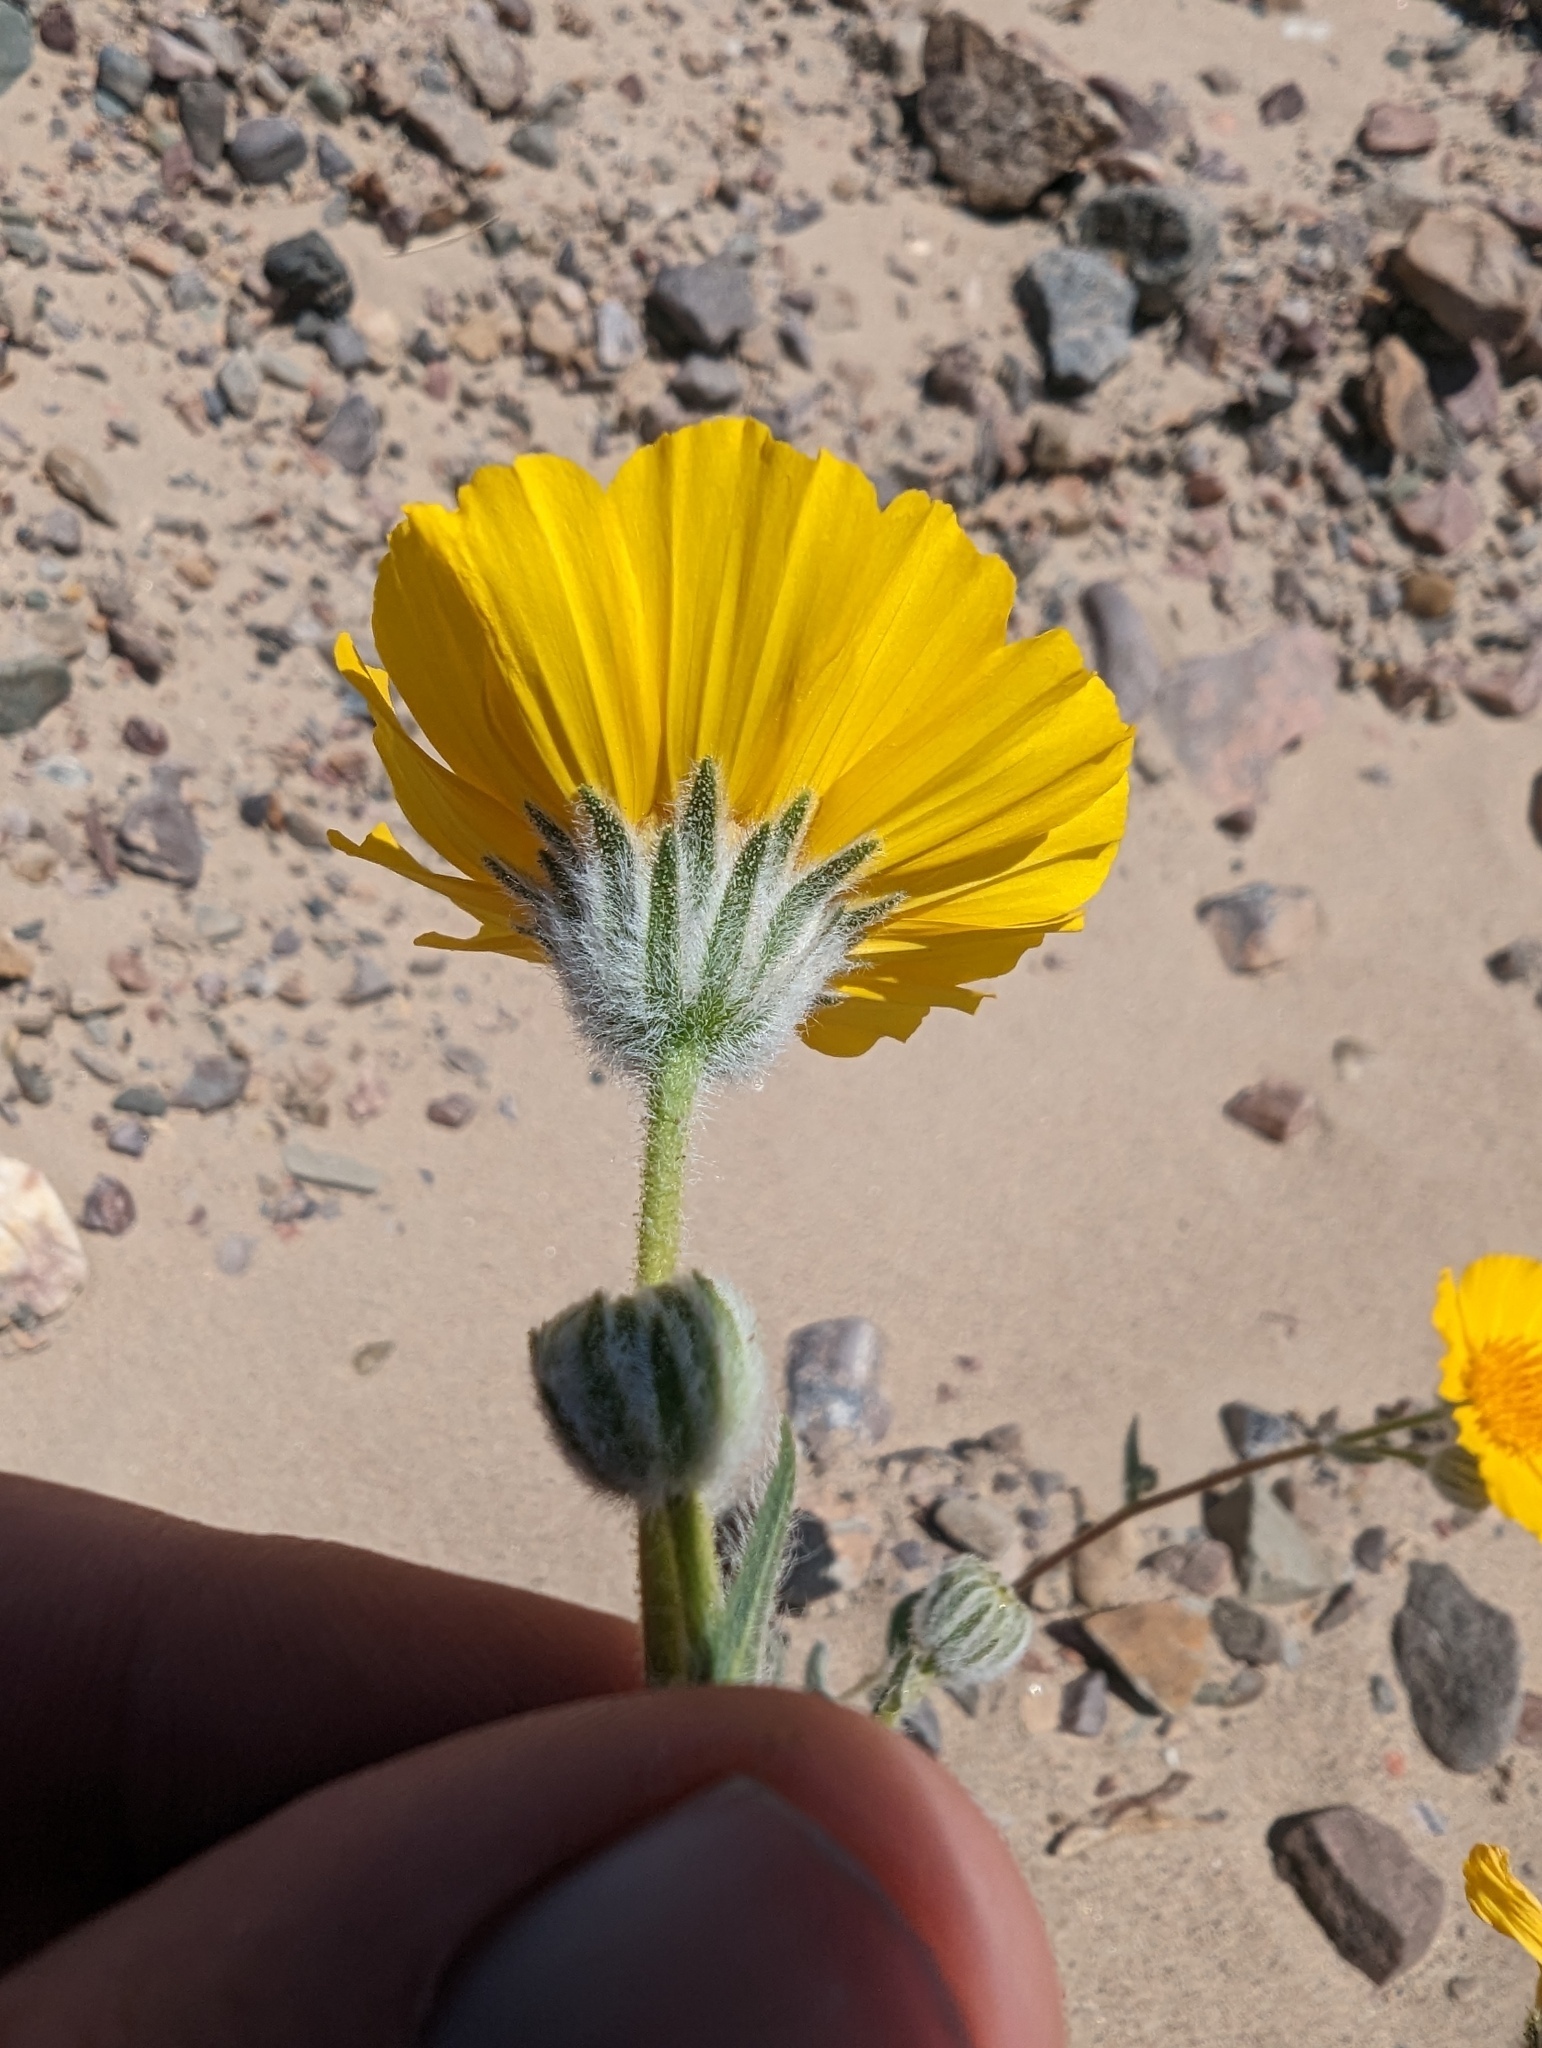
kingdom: Plantae
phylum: Tracheophyta
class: Magnoliopsida
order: Asterales
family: Asteraceae
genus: Geraea
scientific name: Geraea canescens
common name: Desert-gold
